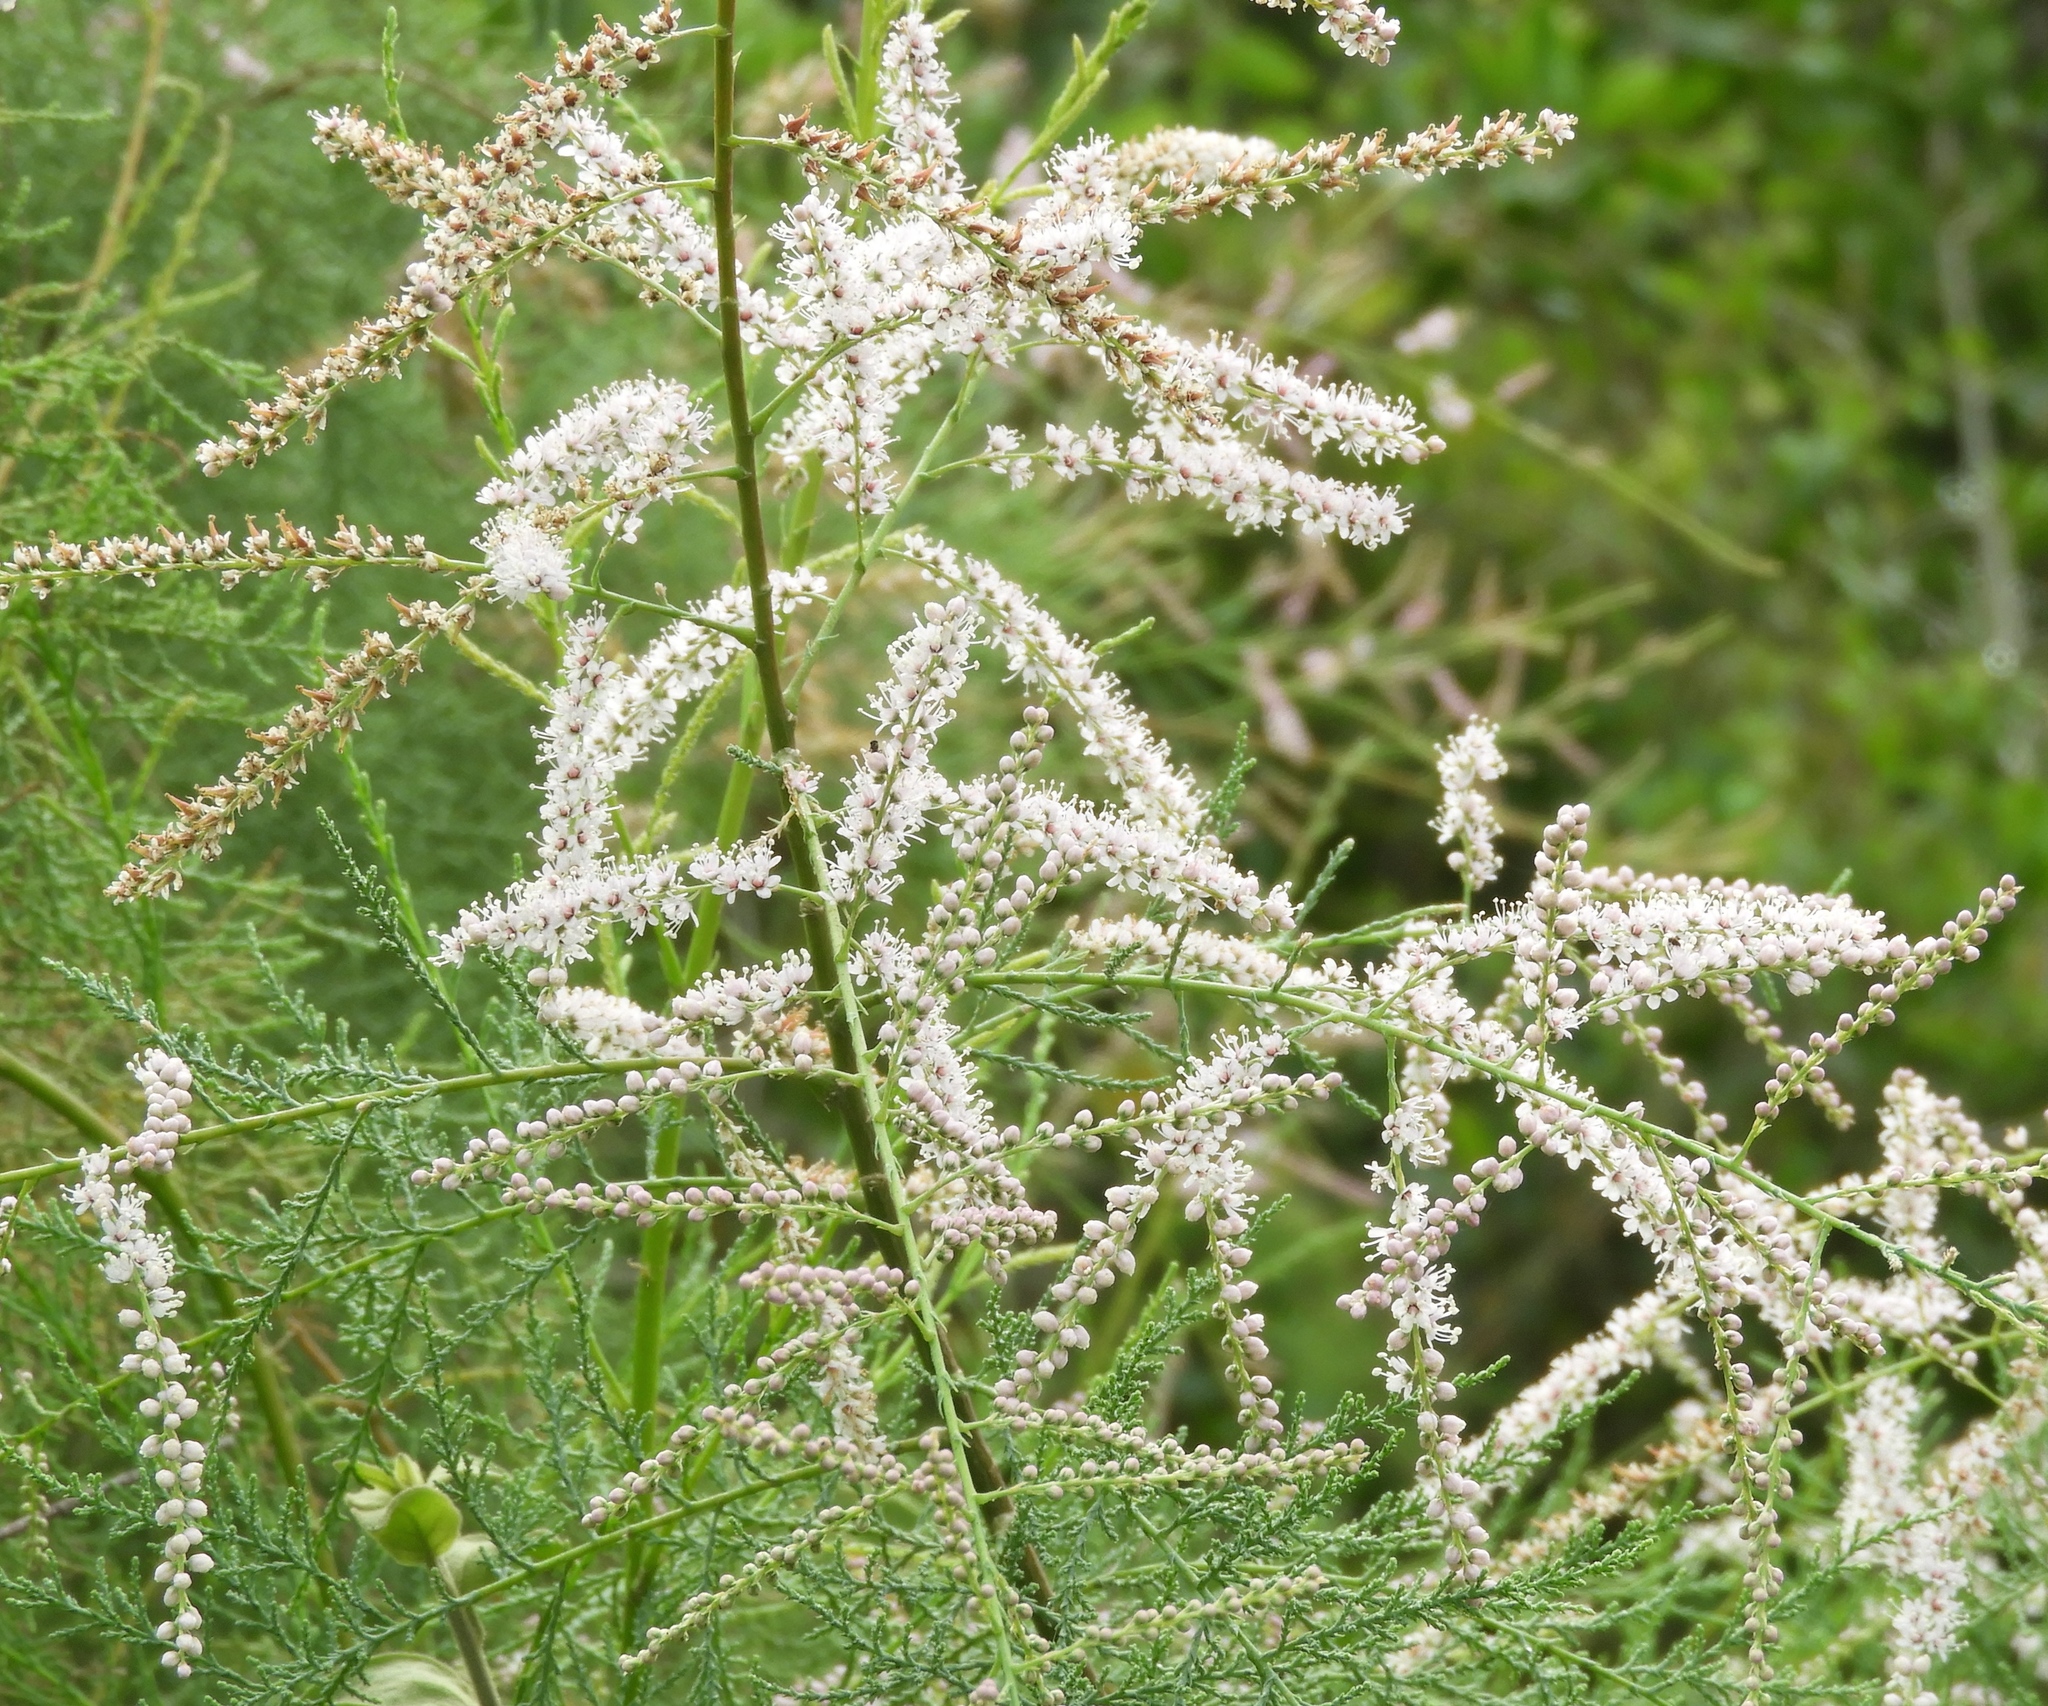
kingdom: Plantae
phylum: Tracheophyta
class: Magnoliopsida
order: Caryophyllales
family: Tamaricaceae
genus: Tamarix
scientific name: Tamarix ramosissima
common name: Pink tamarisk
